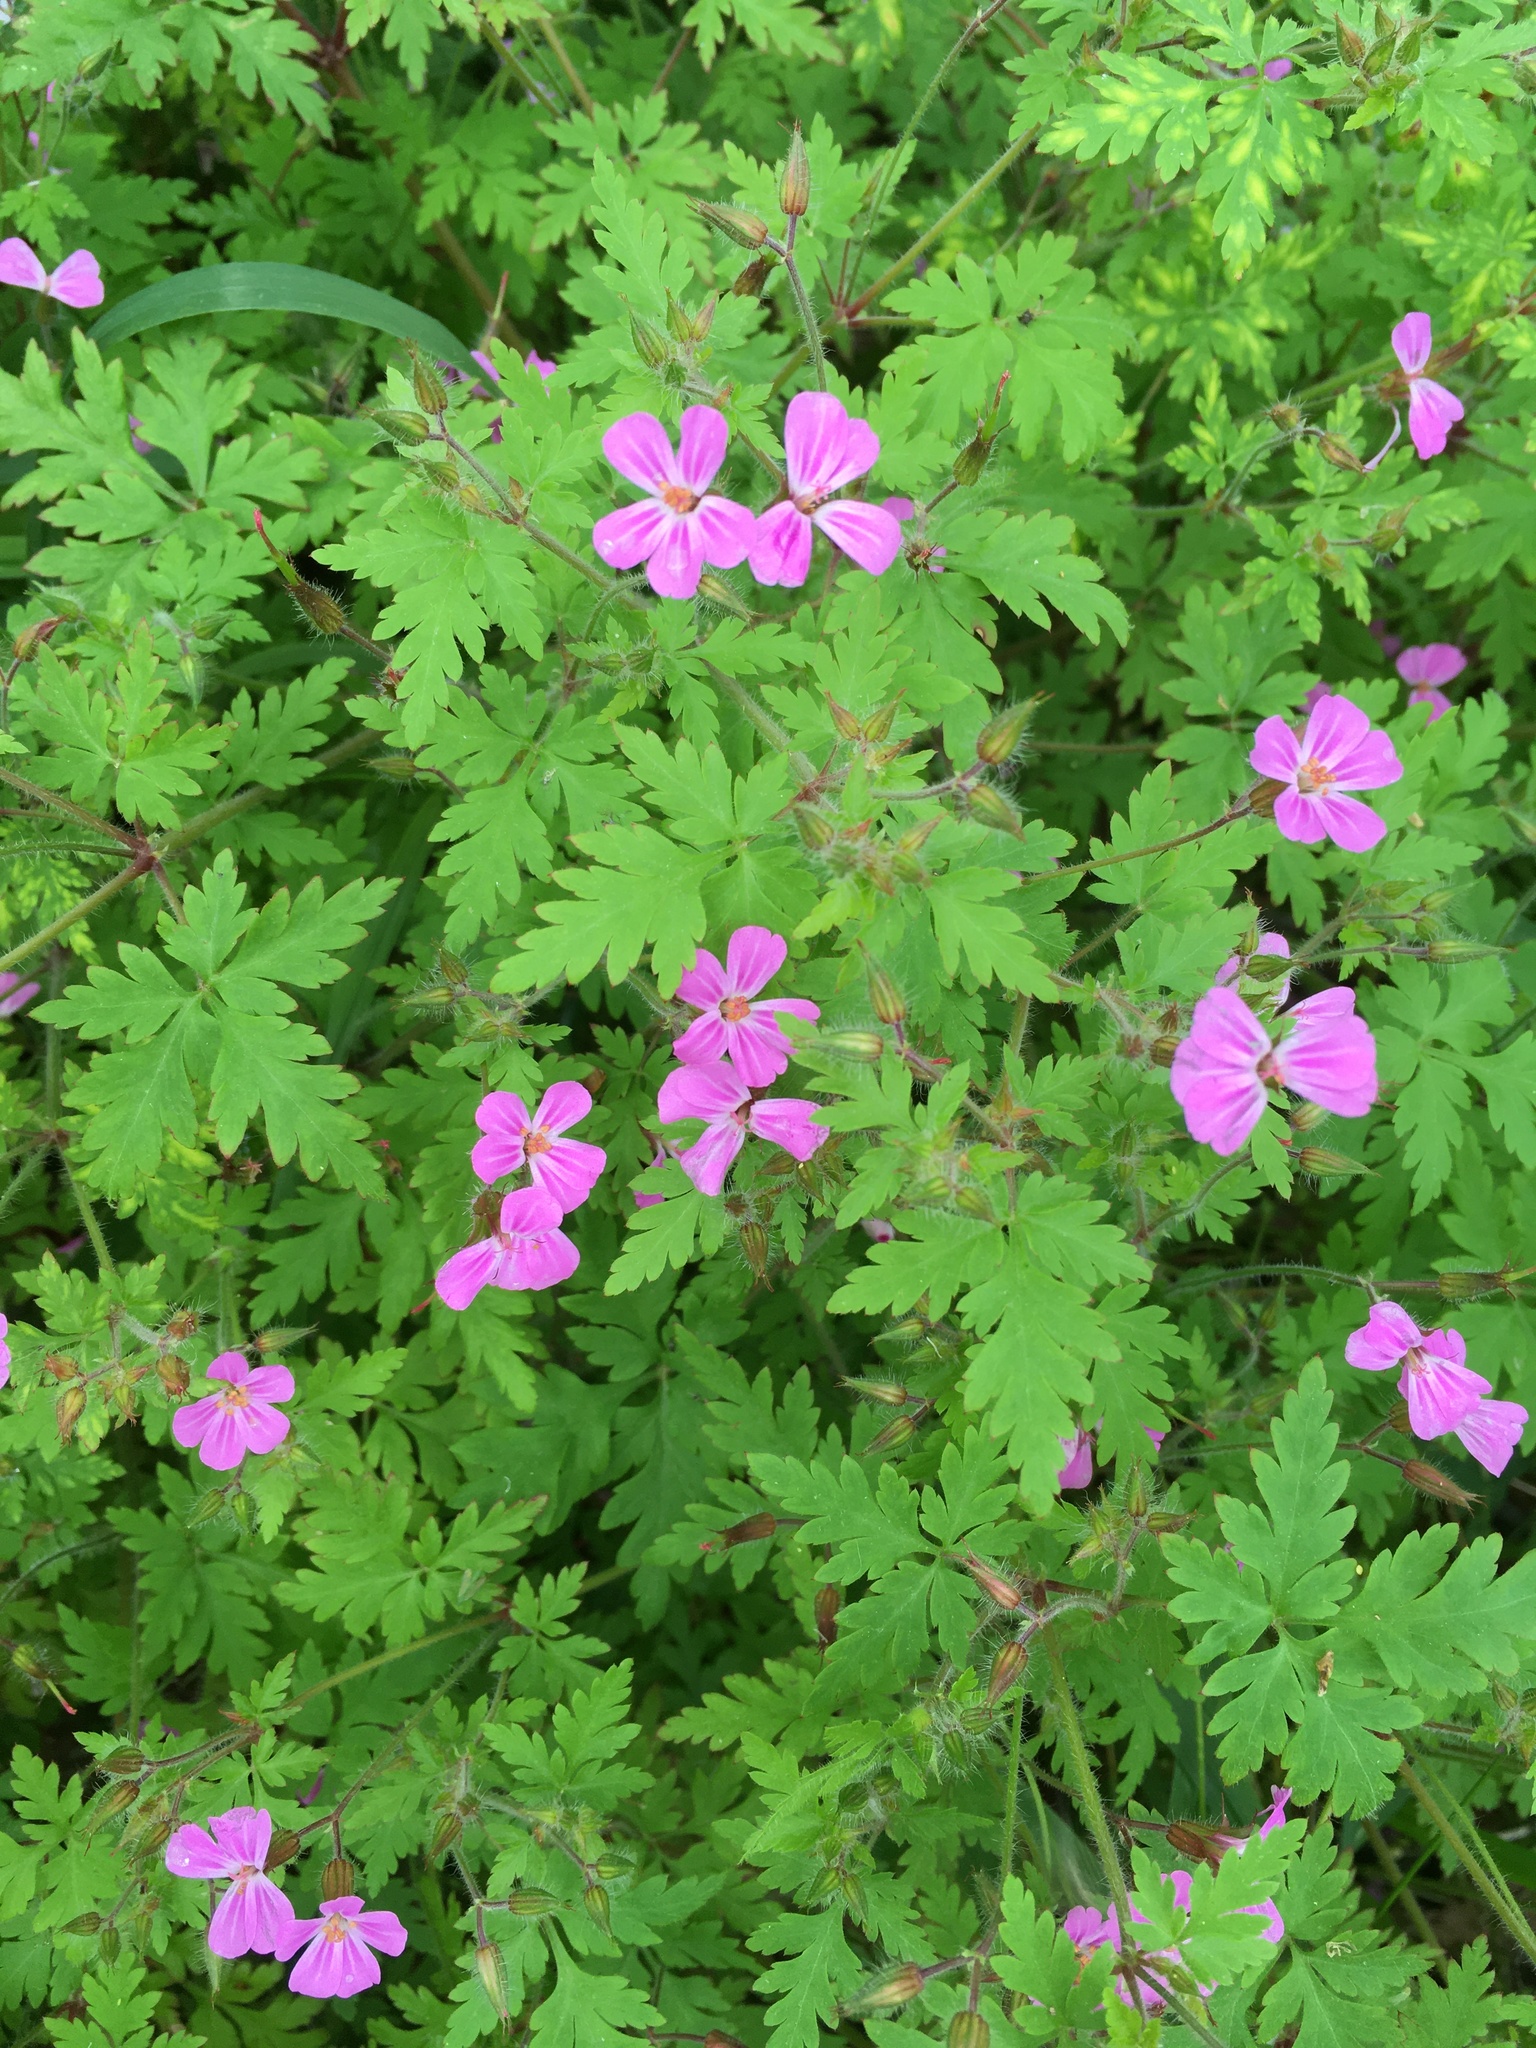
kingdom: Plantae
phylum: Tracheophyta
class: Magnoliopsida
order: Geraniales
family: Geraniaceae
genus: Geranium
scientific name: Geranium robertianum
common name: Herb-robert
